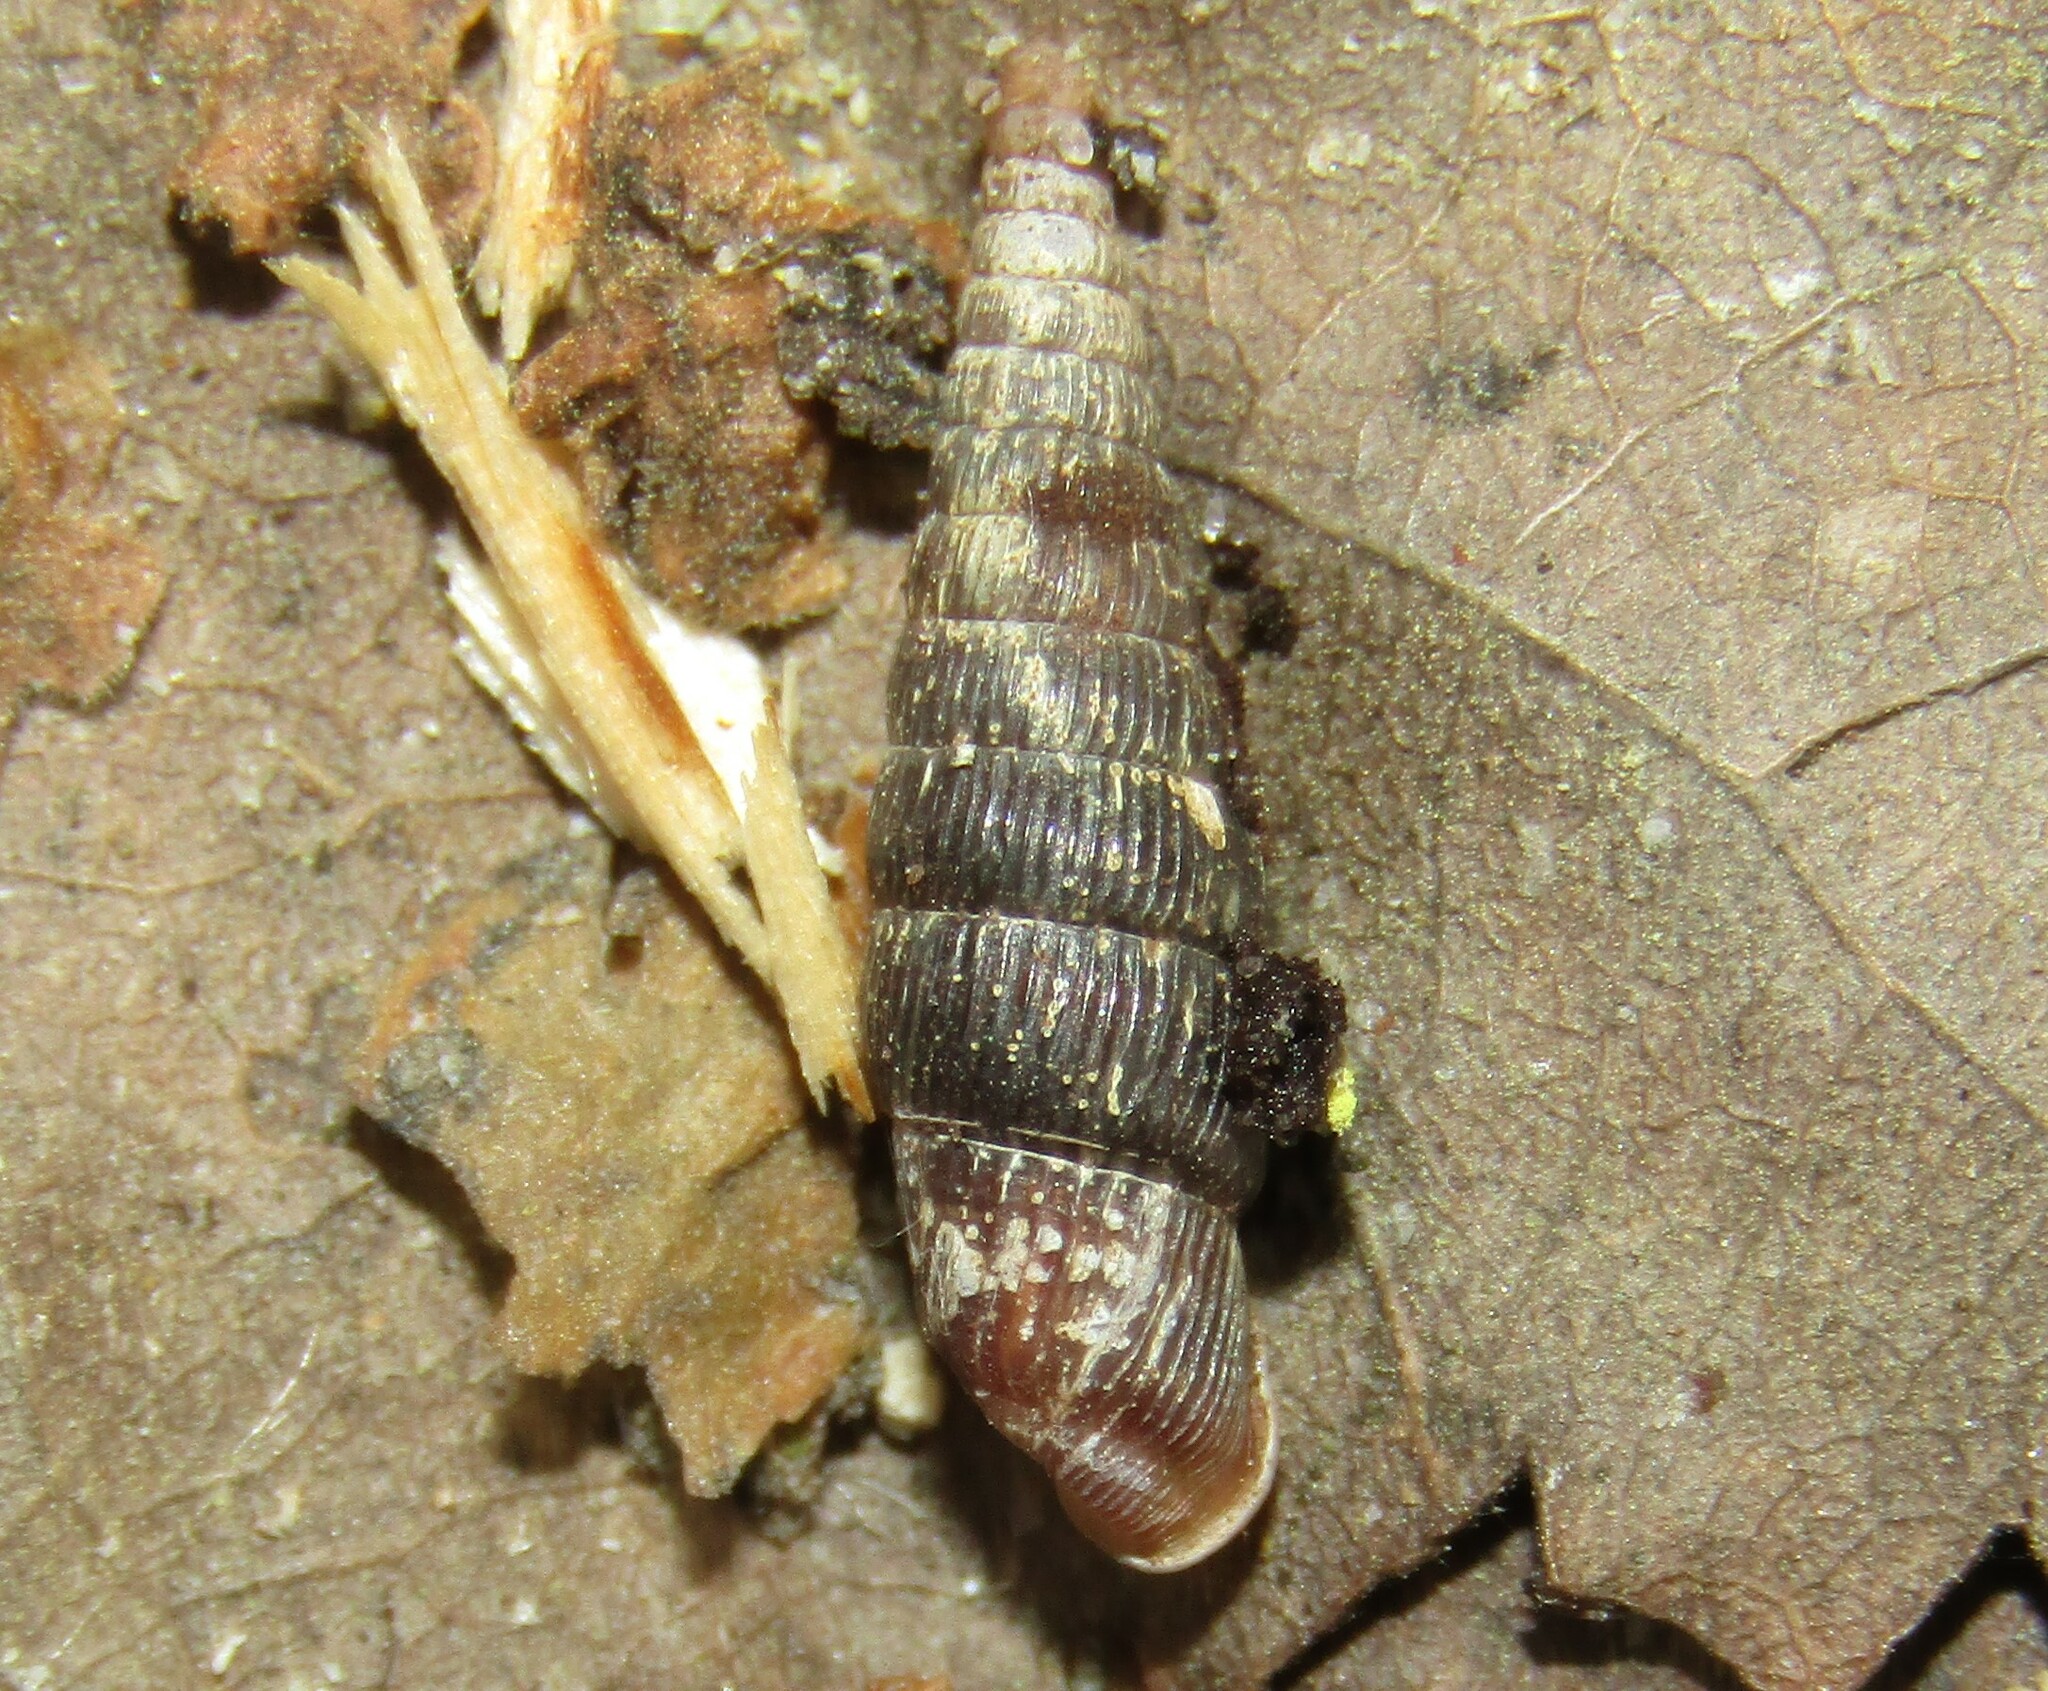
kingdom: Animalia
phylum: Mollusca
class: Gastropoda
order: Stylommatophora
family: Clausiliidae
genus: Clausilia
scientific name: Clausilia pumila
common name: Clublike door snail
